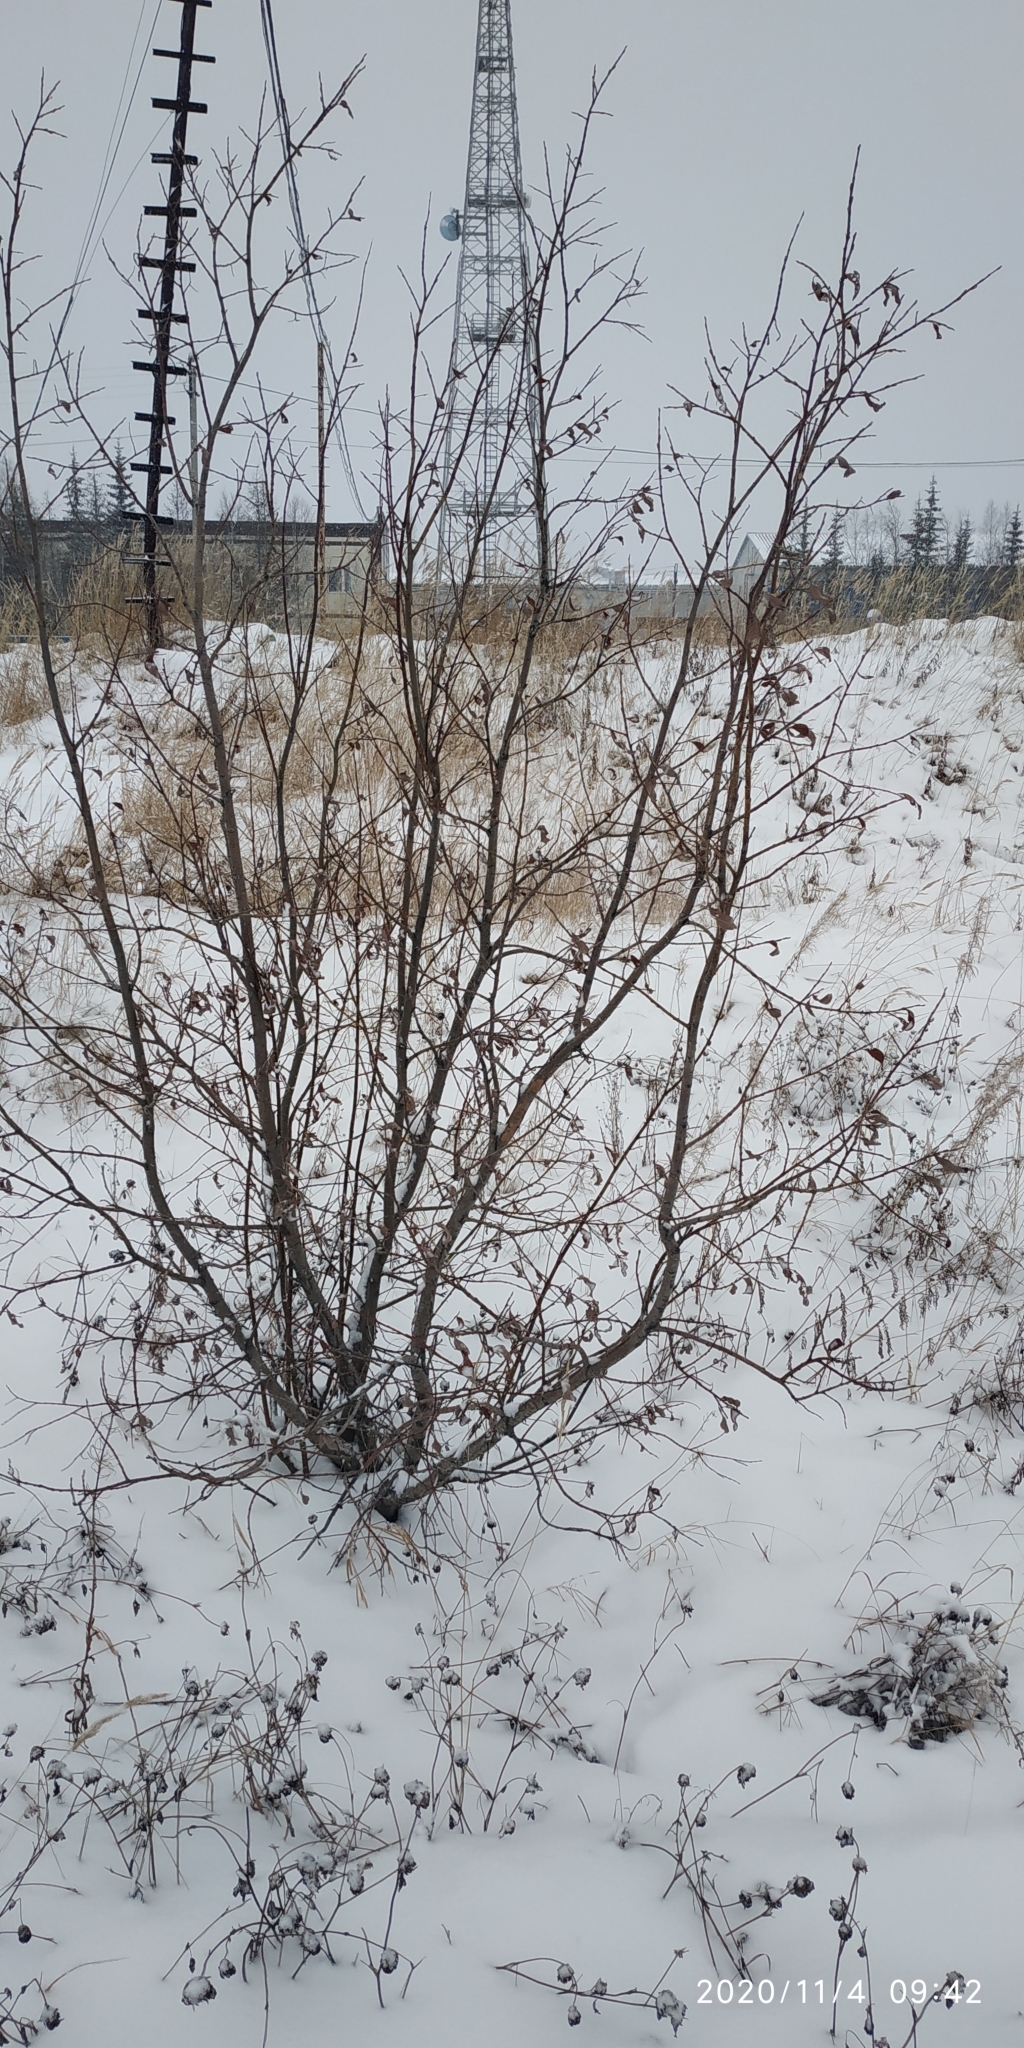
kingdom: Plantae
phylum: Tracheophyta
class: Magnoliopsida
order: Malpighiales
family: Salicaceae
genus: Salix
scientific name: Salix phylicifolia
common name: Tea-leaved willow
